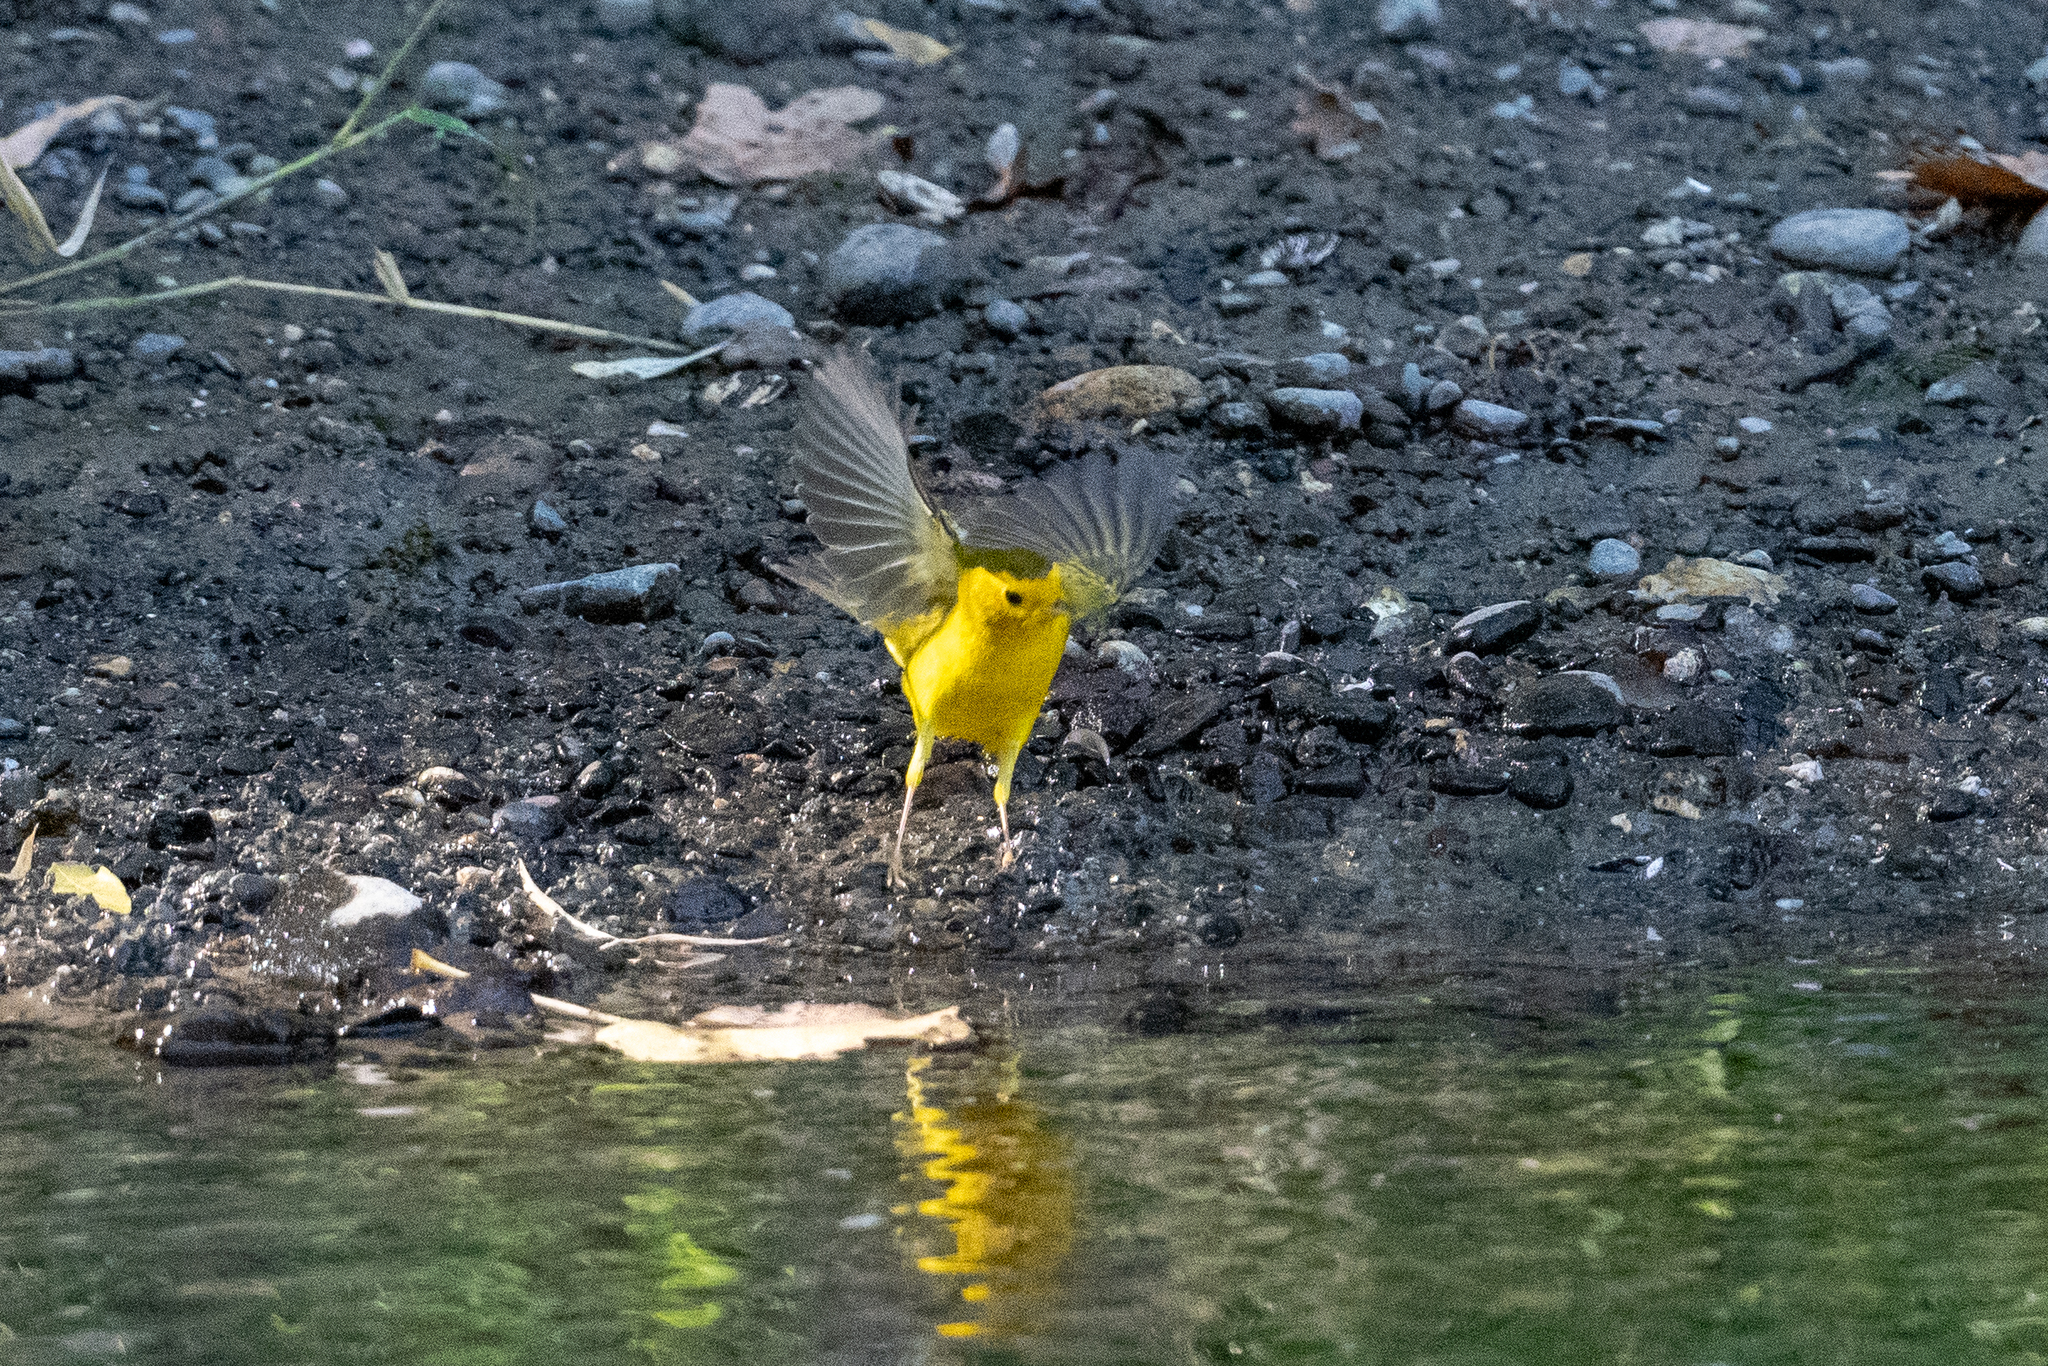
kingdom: Animalia
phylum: Chordata
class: Aves
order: Passeriformes
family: Parulidae
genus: Cardellina
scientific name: Cardellina pusilla
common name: Wilson's warbler
